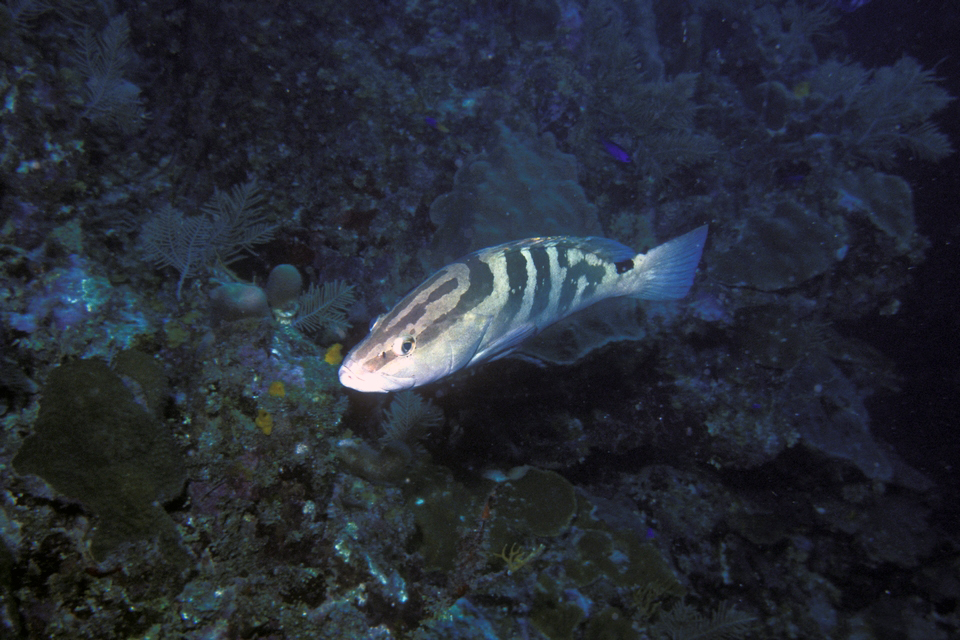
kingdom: Animalia
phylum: Chordata
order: Perciformes
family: Serranidae
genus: Epinephelus
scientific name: Epinephelus striatus
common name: Nassau grouper
